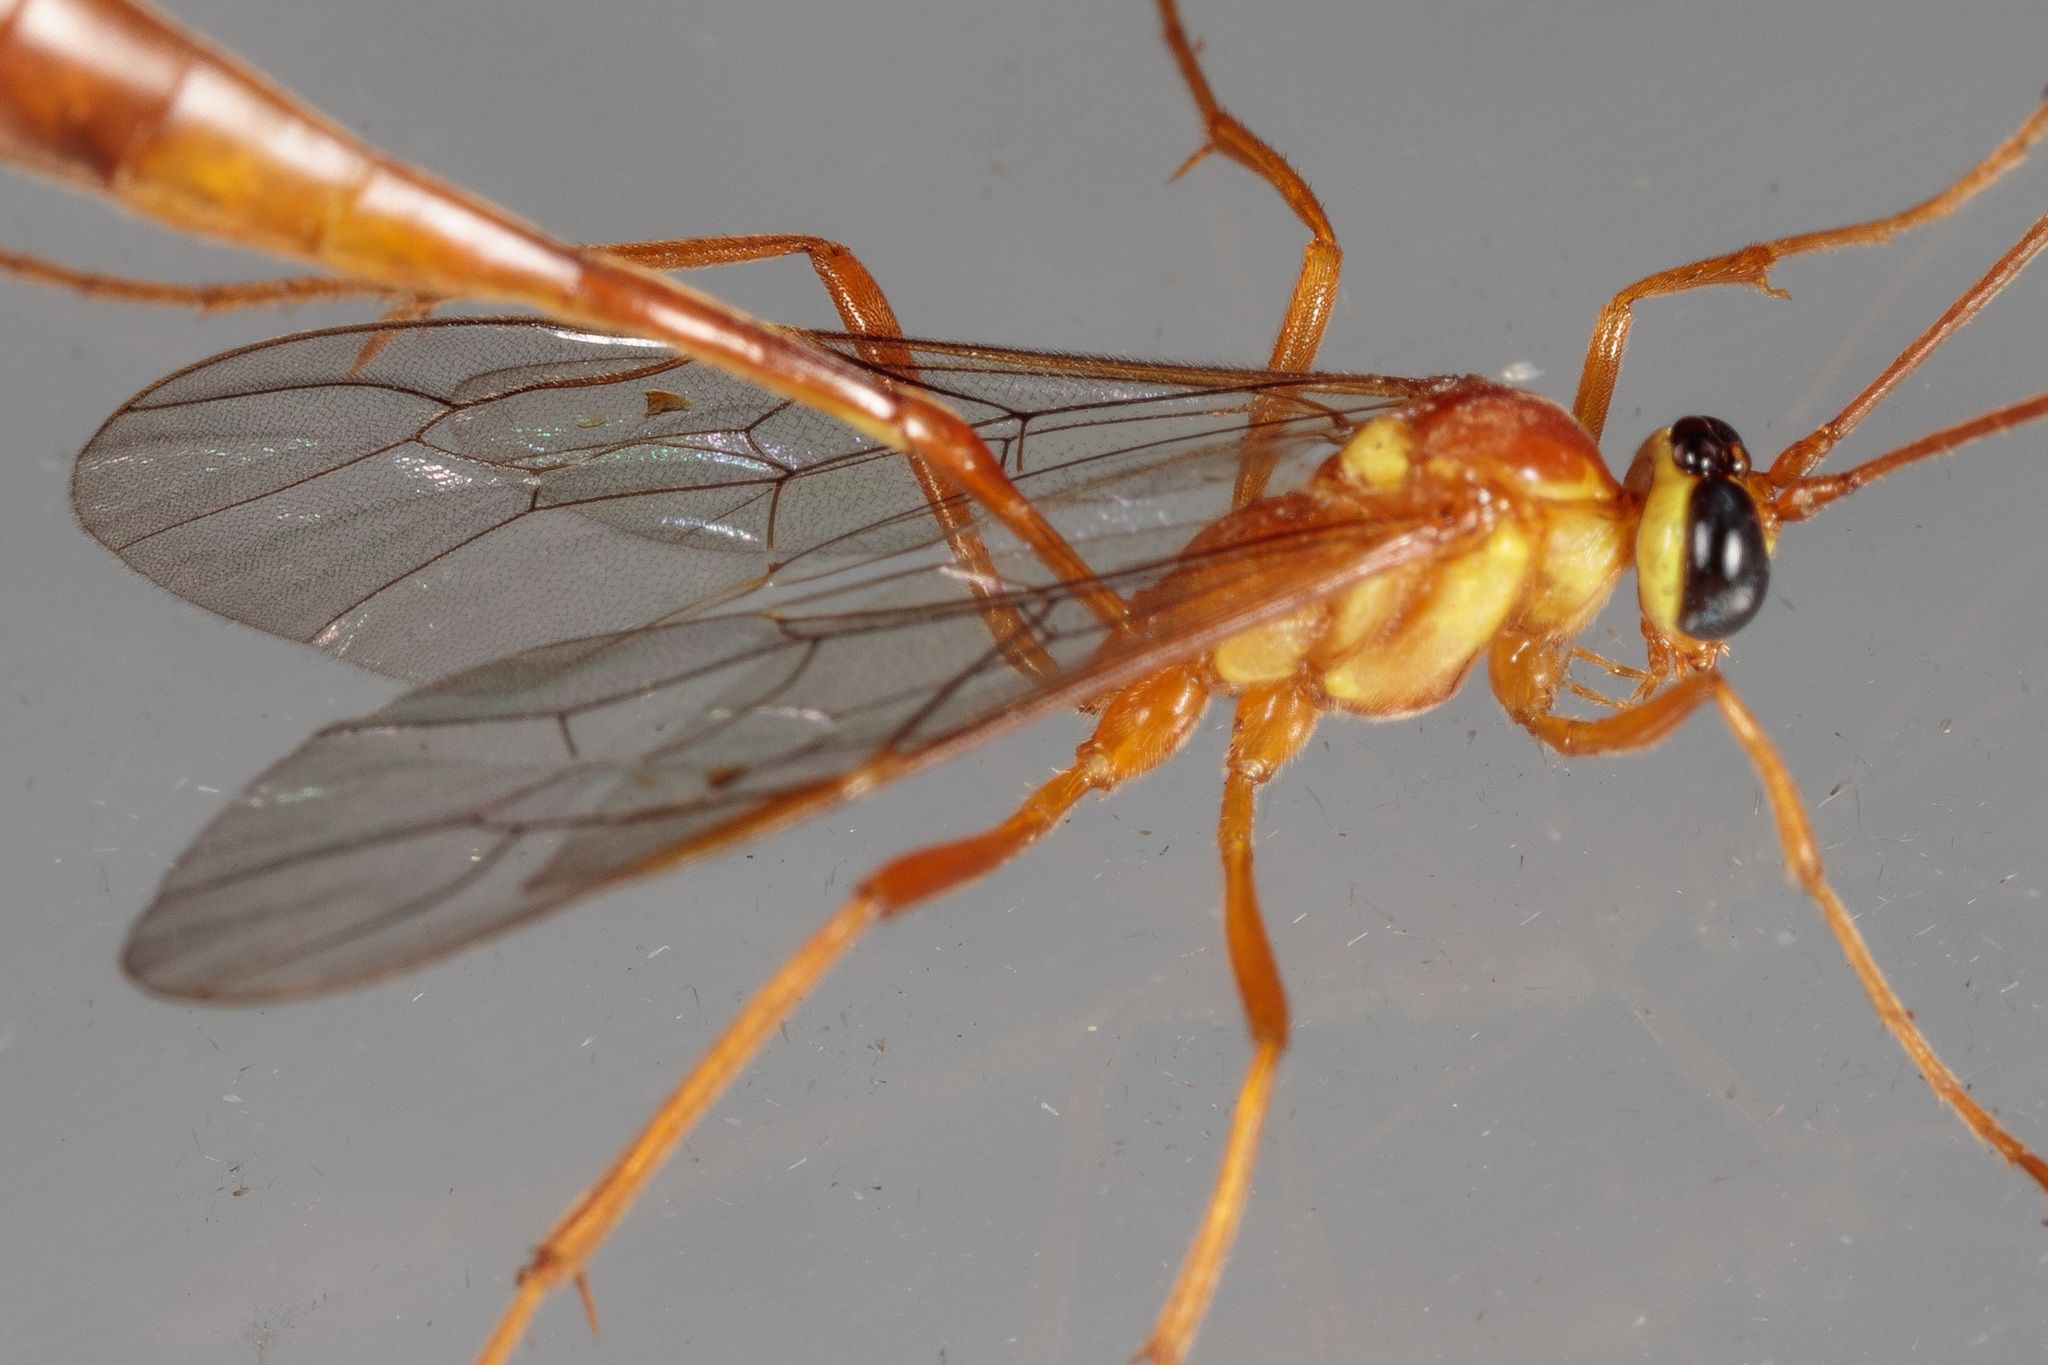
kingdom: Animalia
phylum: Arthropoda
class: Insecta
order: Hymenoptera
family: Ichneumonidae
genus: Enicospilus
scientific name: Enicospilus flavostigma
